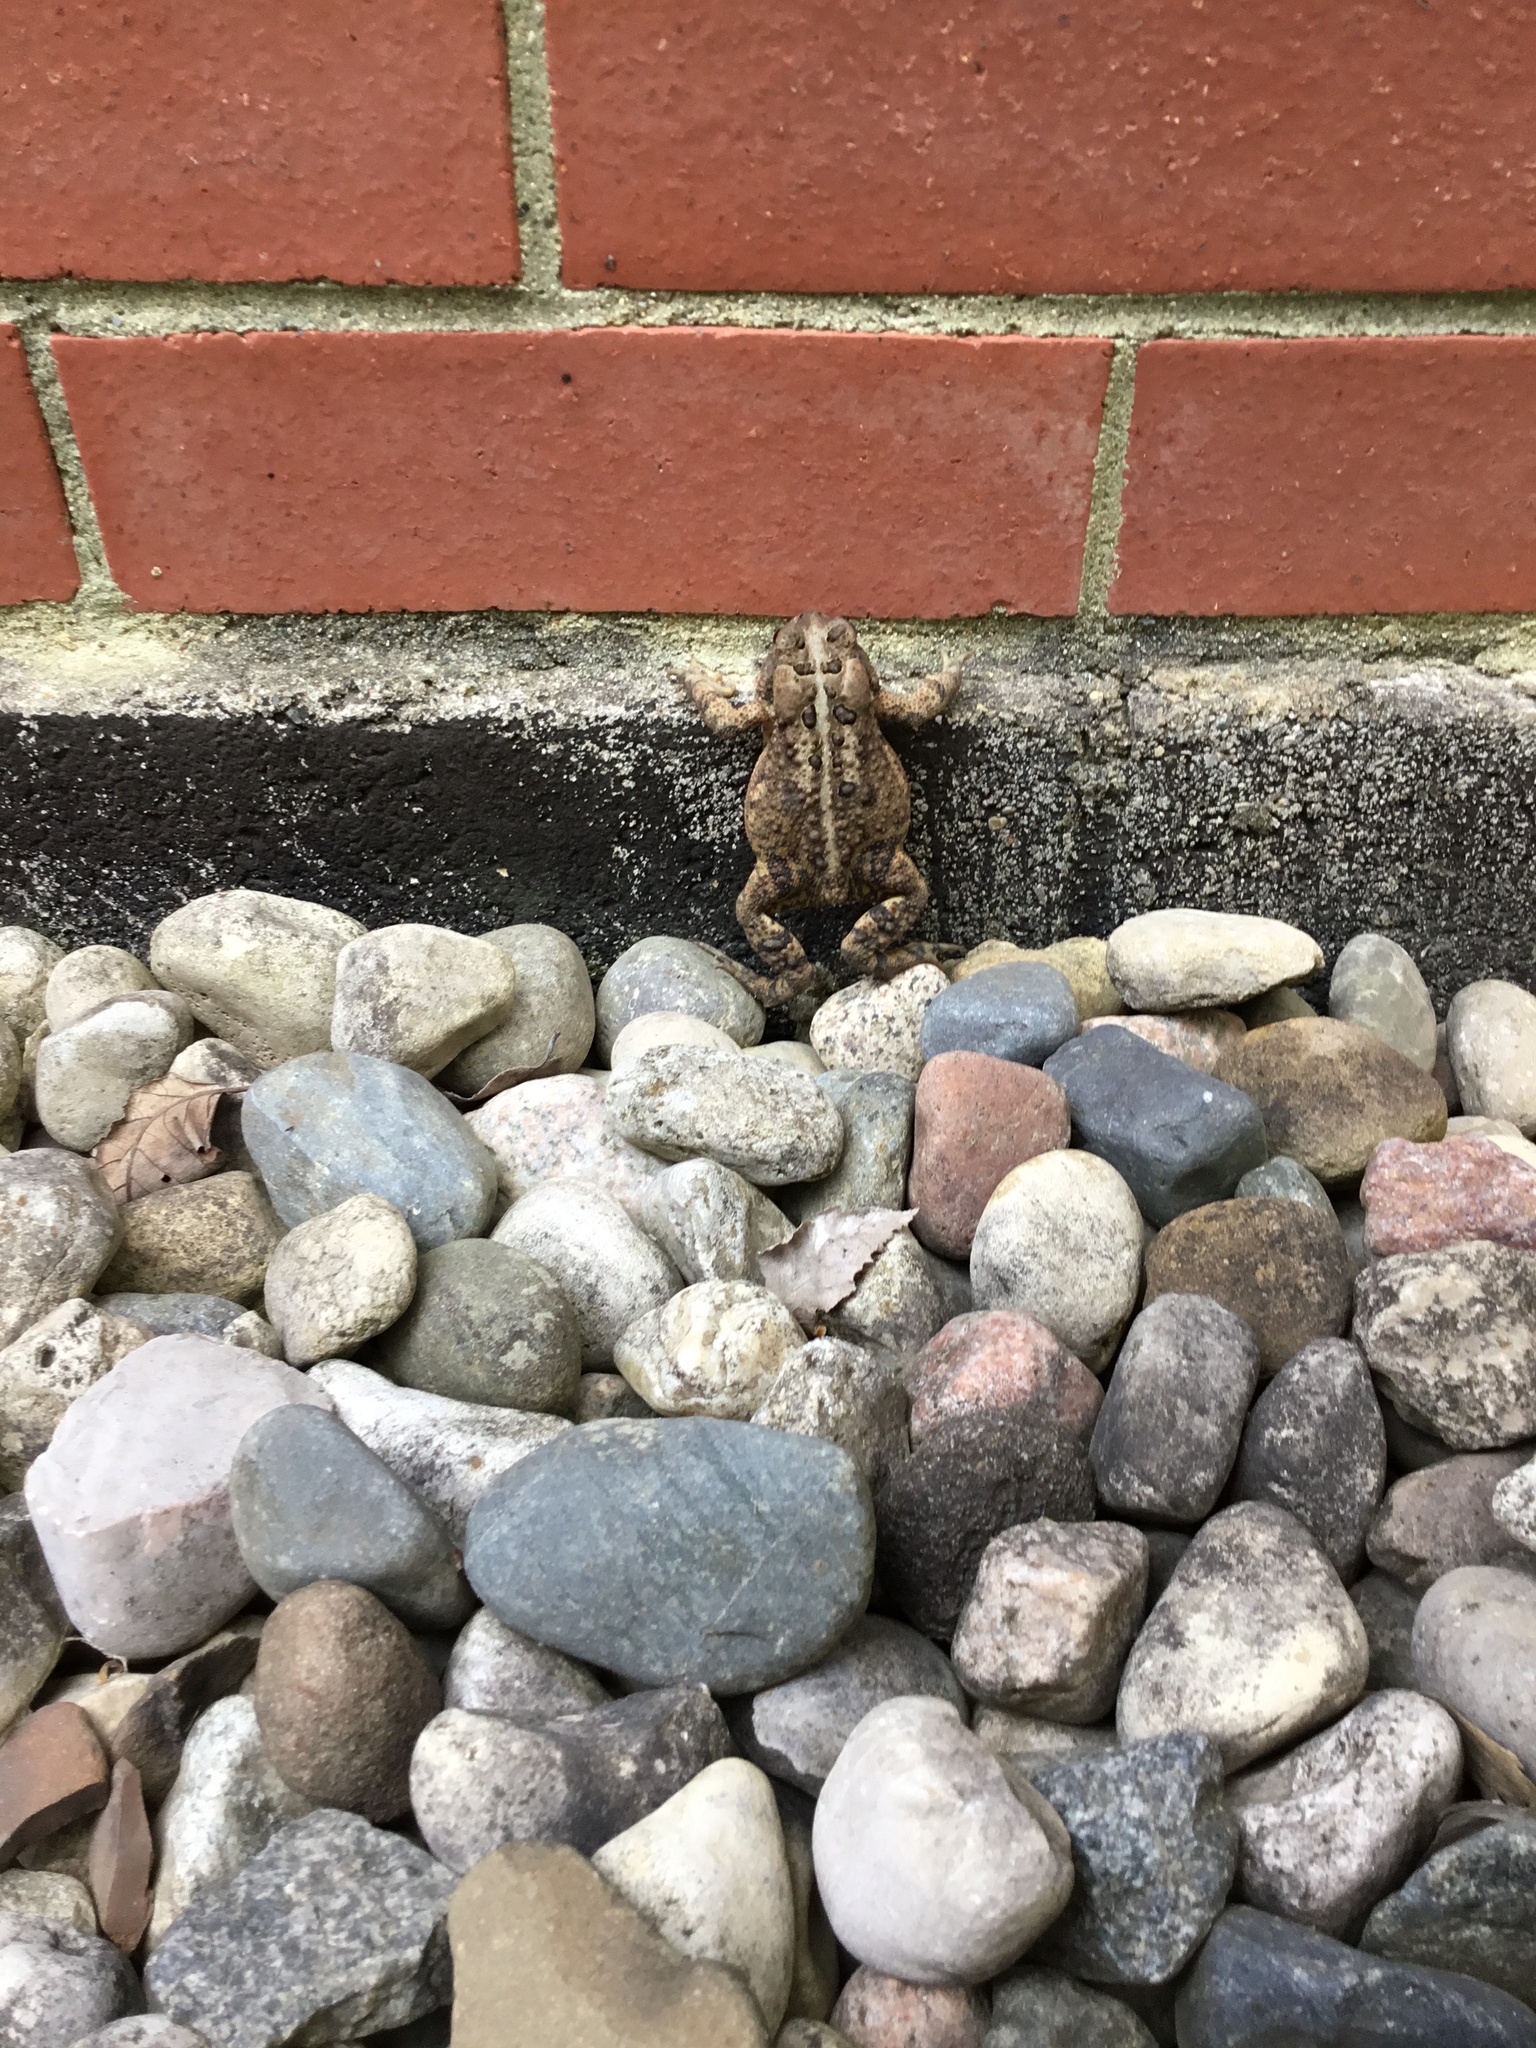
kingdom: Animalia
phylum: Chordata
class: Amphibia
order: Anura
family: Bufonidae
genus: Anaxyrus
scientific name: Anaxyrus americanus
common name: American toad
